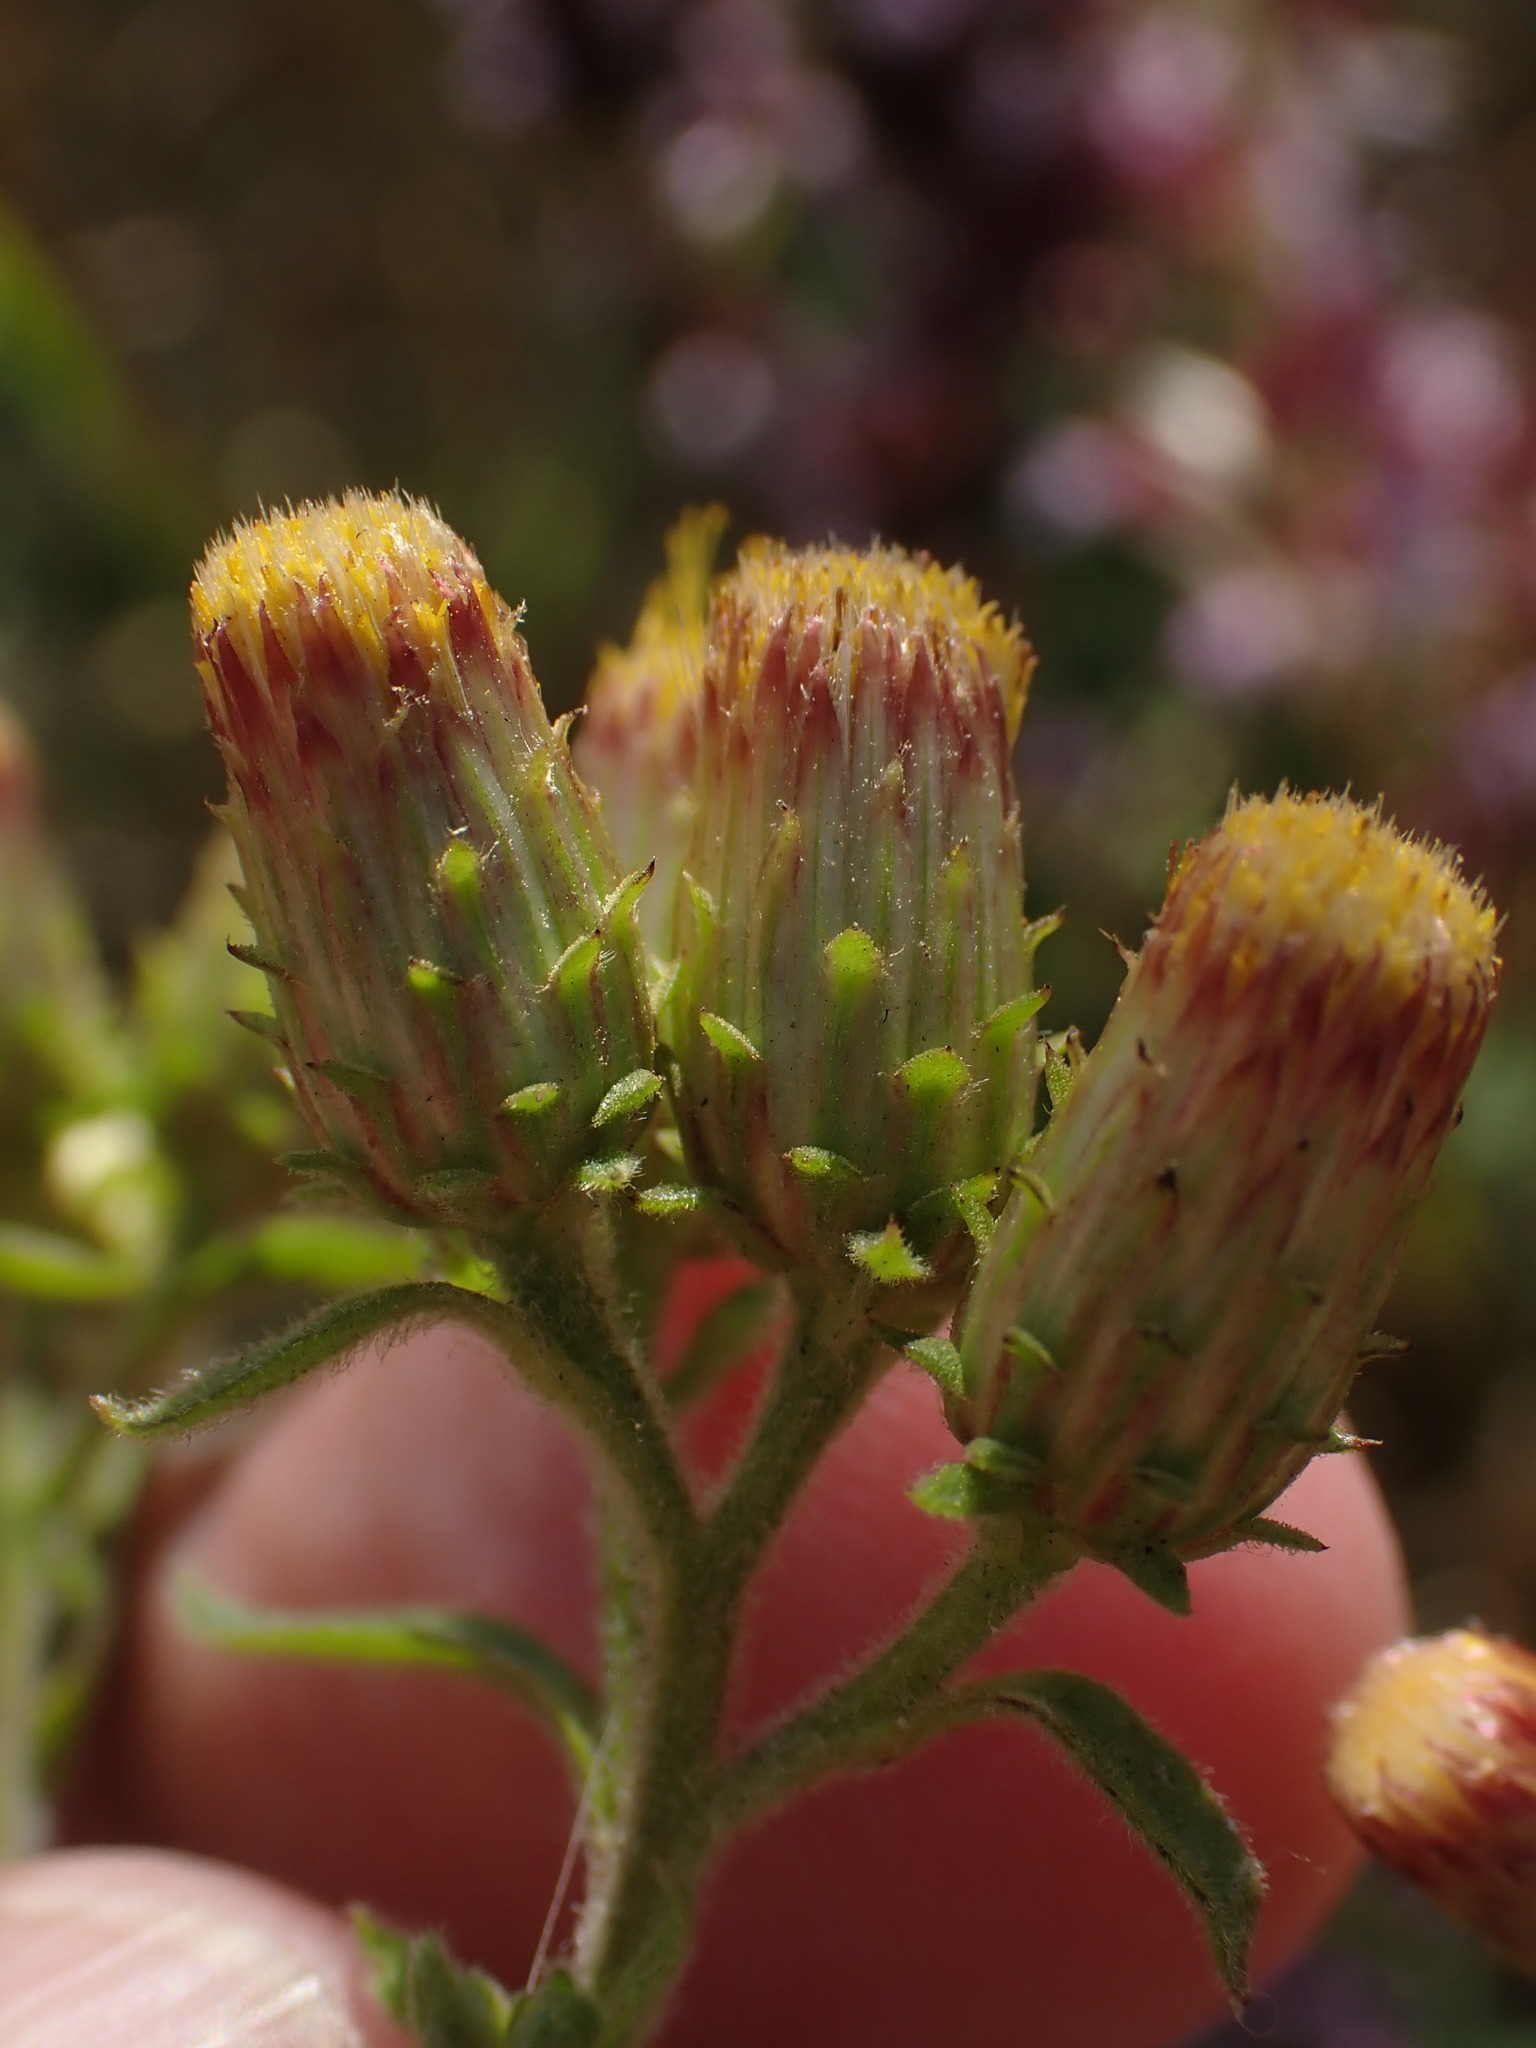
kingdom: Plantae
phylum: Tracheophyta
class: Magnoliopsida
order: Asterales
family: Asteraceae
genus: Pentanema
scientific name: Pentanema squarrosum
